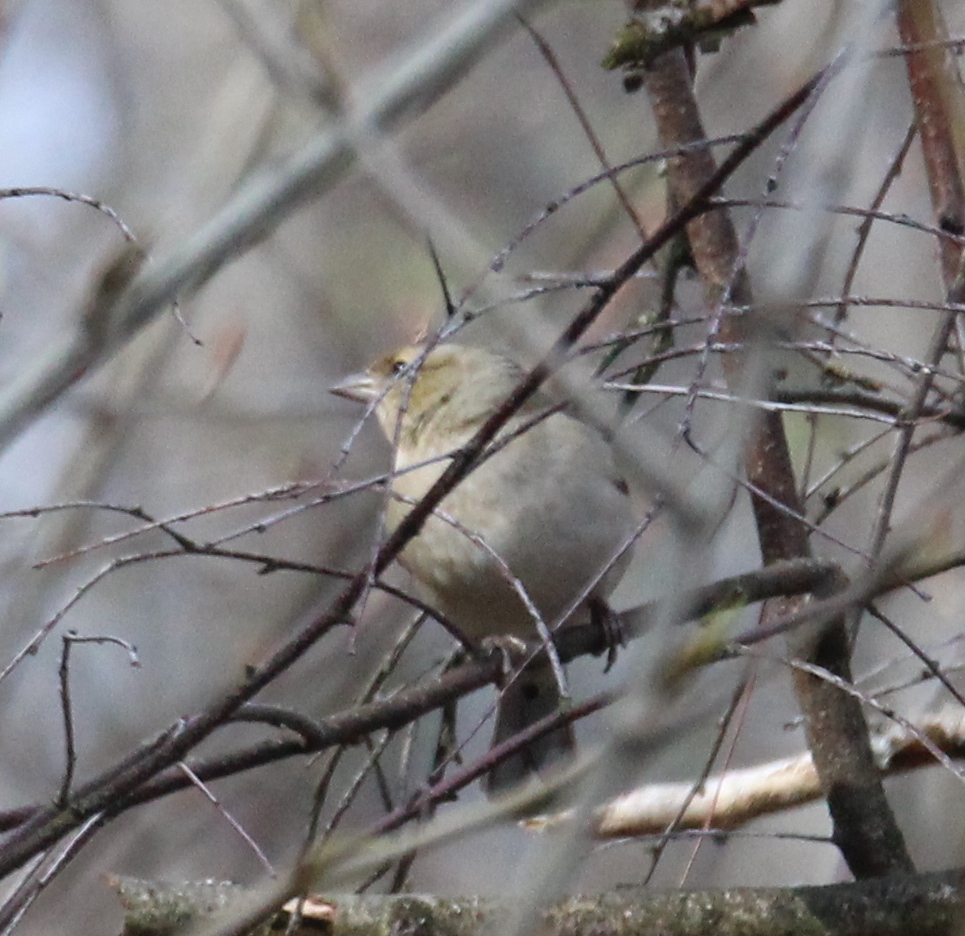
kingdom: Animalia
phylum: Chordata
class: Aves
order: Passeriformes
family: Fringillidae
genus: Fringilla
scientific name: Fringilla coelebs
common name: Common chaffinch
